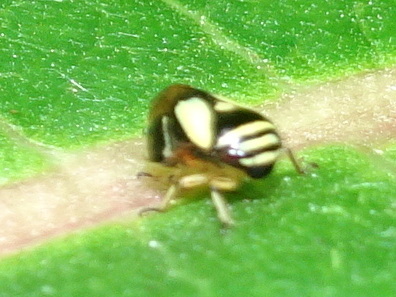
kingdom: Animalia
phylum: Arthropoda
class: Insecta
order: Hemiptera
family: Clastopteridae
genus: Clastoptera
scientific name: Clastoptera proteus
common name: Dogwood spittlebug
